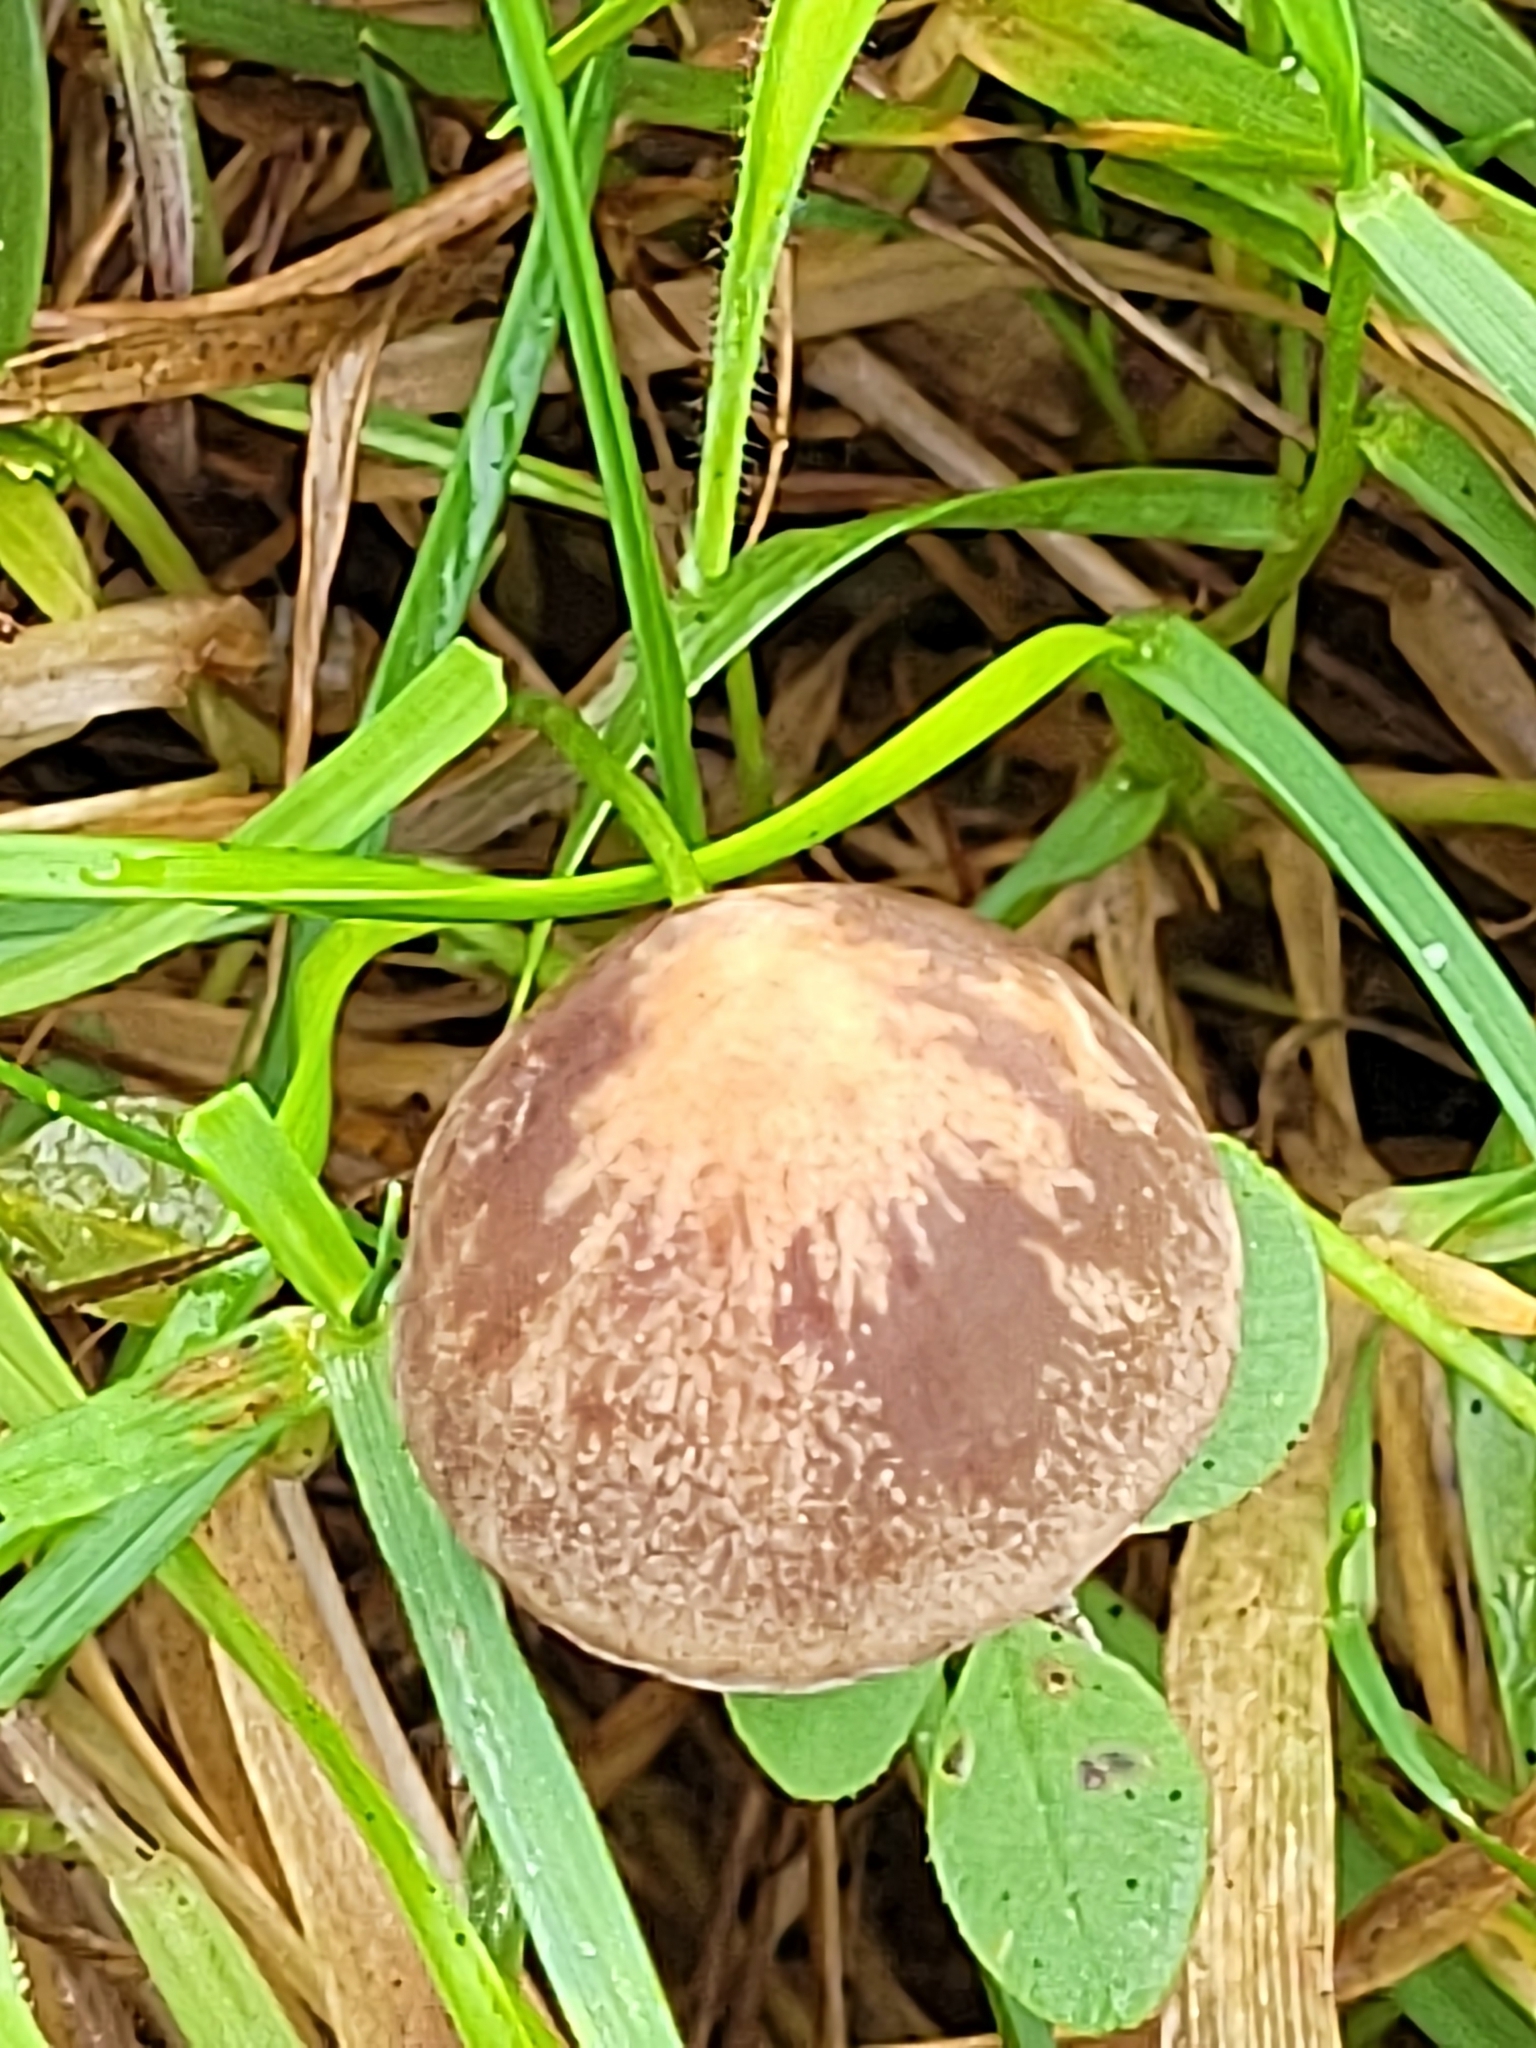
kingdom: Fungi
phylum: Basidiomycota
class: Agaricomycetes
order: Agaricales
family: Bolbitiaceae
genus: Panaeolina
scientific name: Panaeolina foenisecii
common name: Brown hay cap
